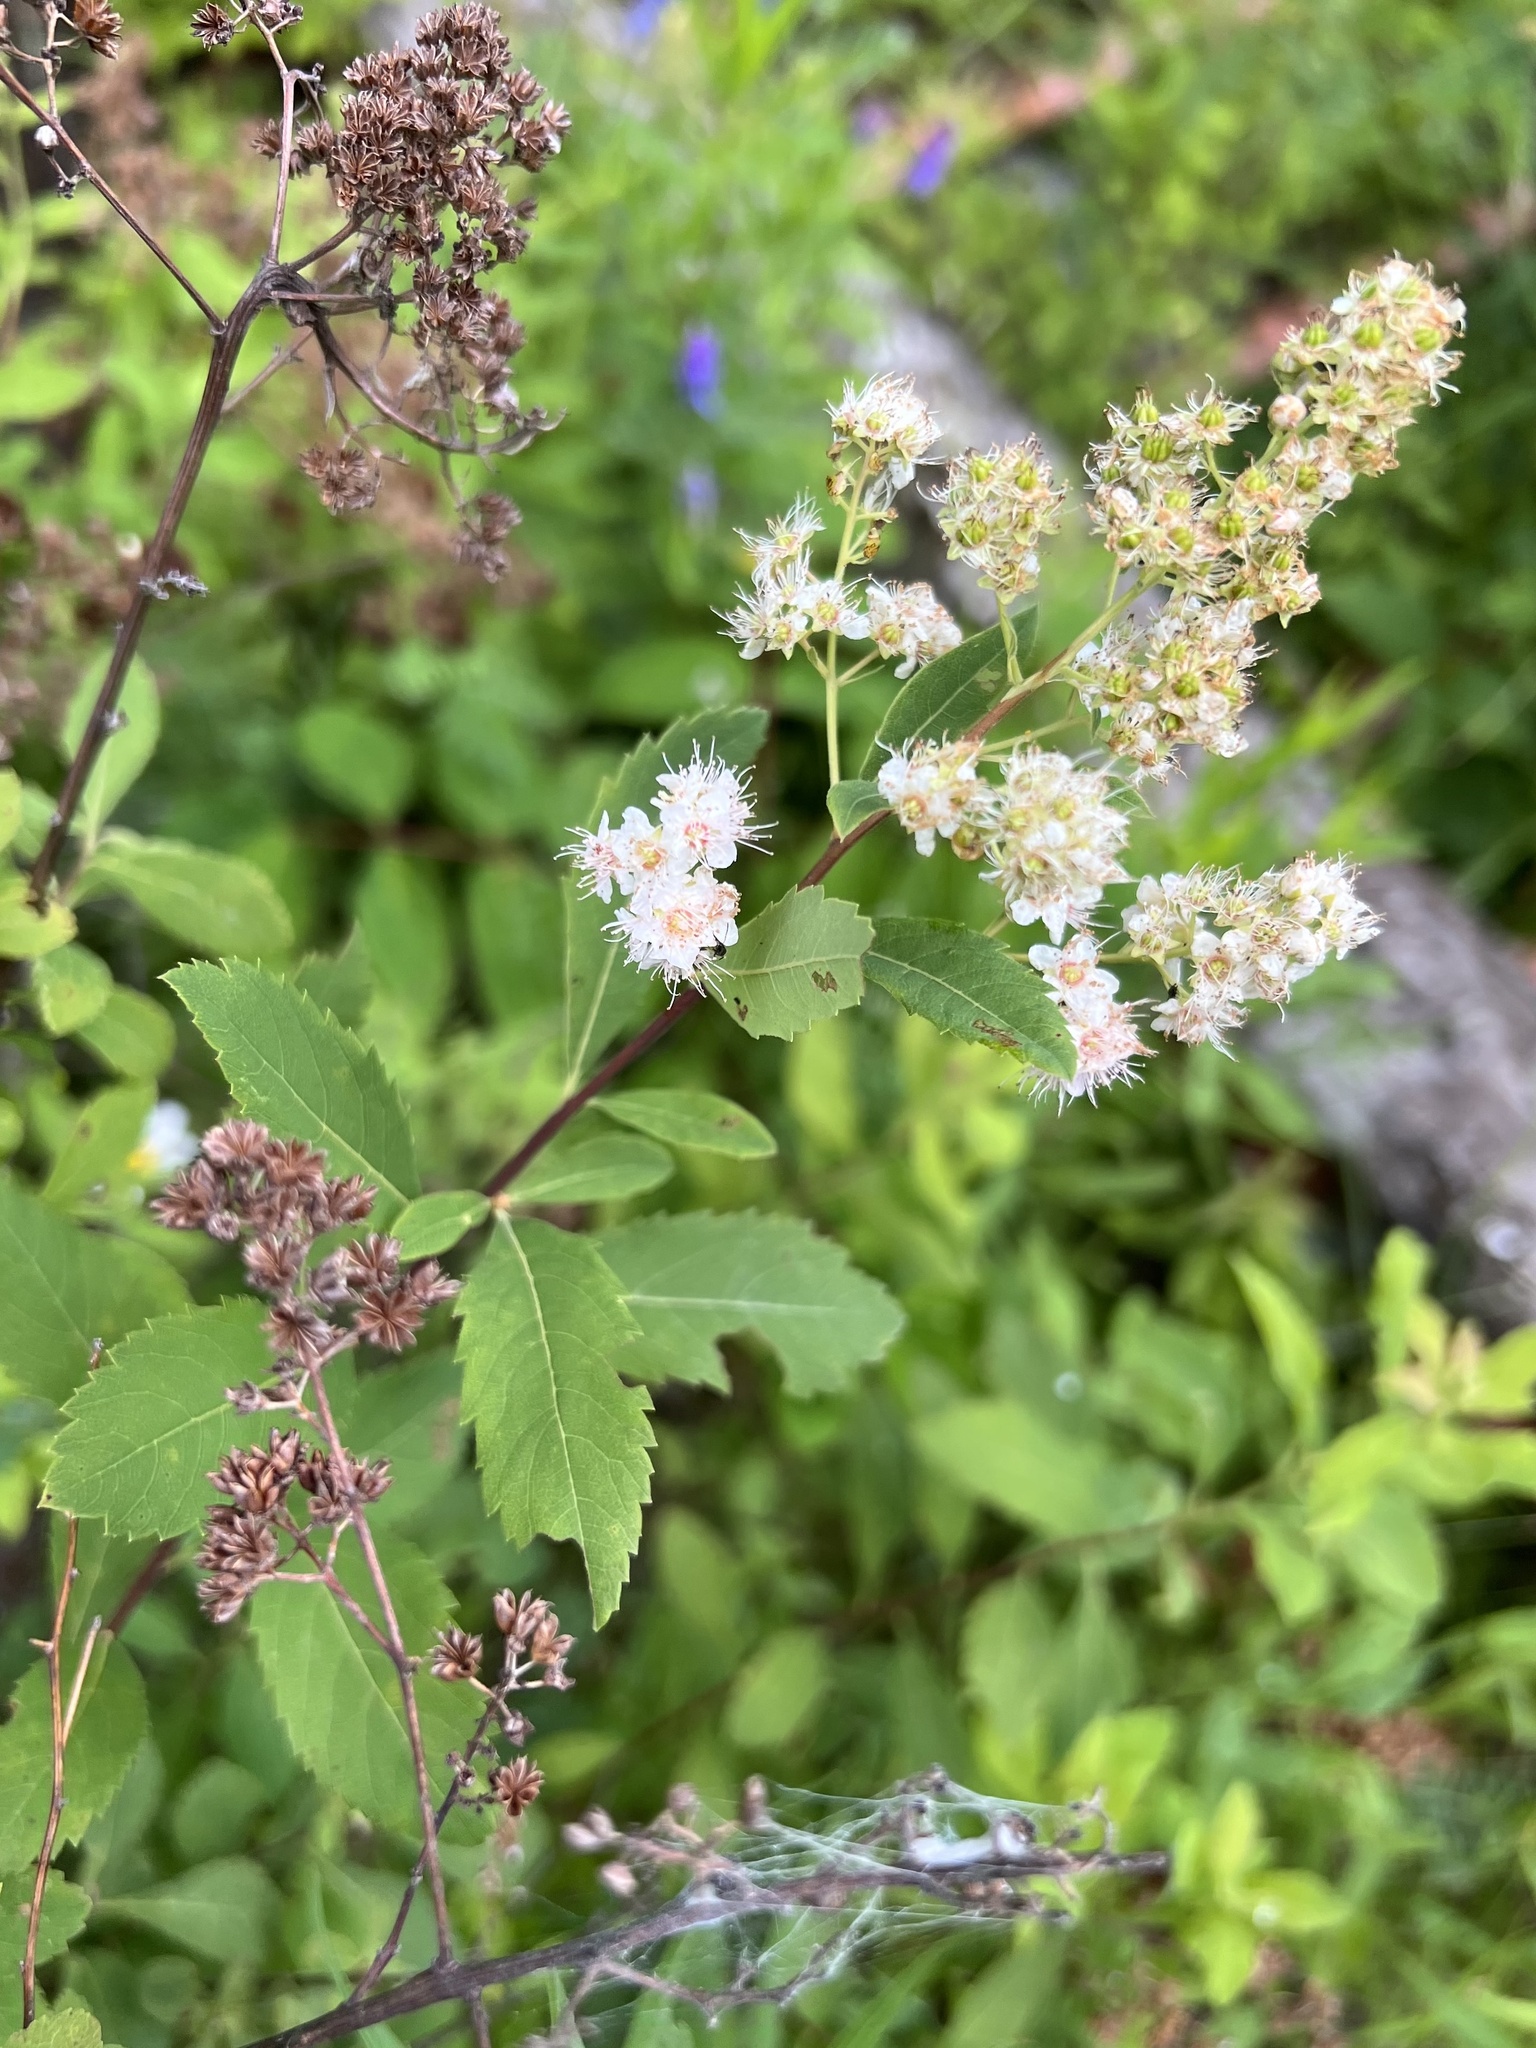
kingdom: Plantae
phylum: Tracheophyta
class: Magnoliopsida
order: Rosales
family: Rosaceae
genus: Spiraea
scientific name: Spiraea alba
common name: Pale bridewort
